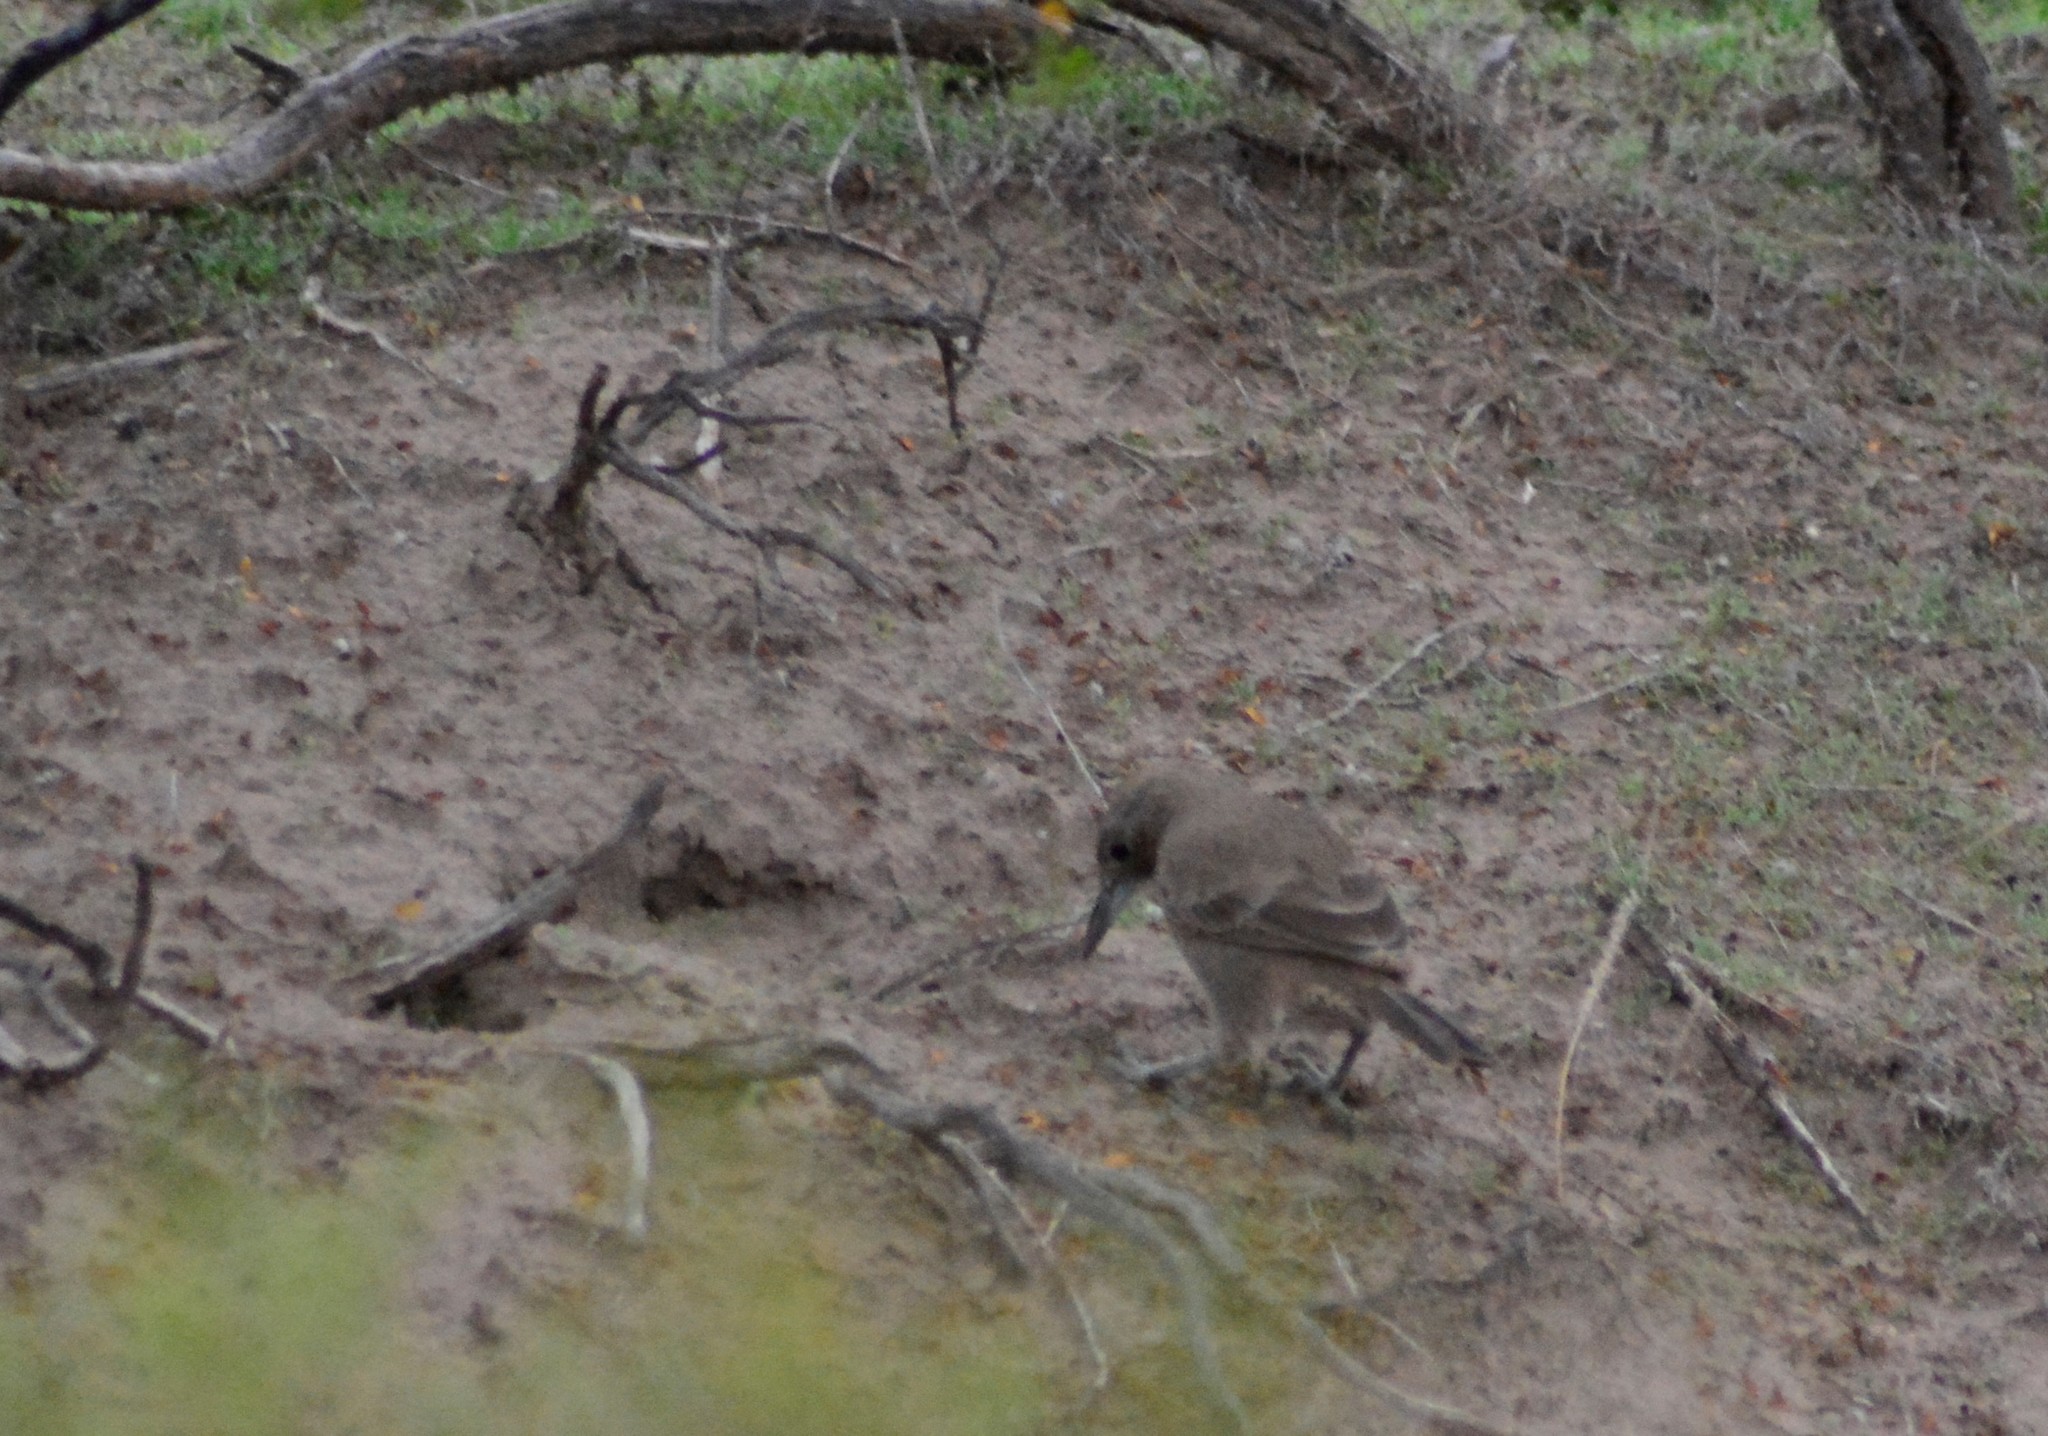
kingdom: Animalia
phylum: Chordata
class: Aves
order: Passeriformes
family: Furnariidae
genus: Pseudoseisura
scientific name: Pseudoseisura gutturalis
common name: White-throated cacholote
